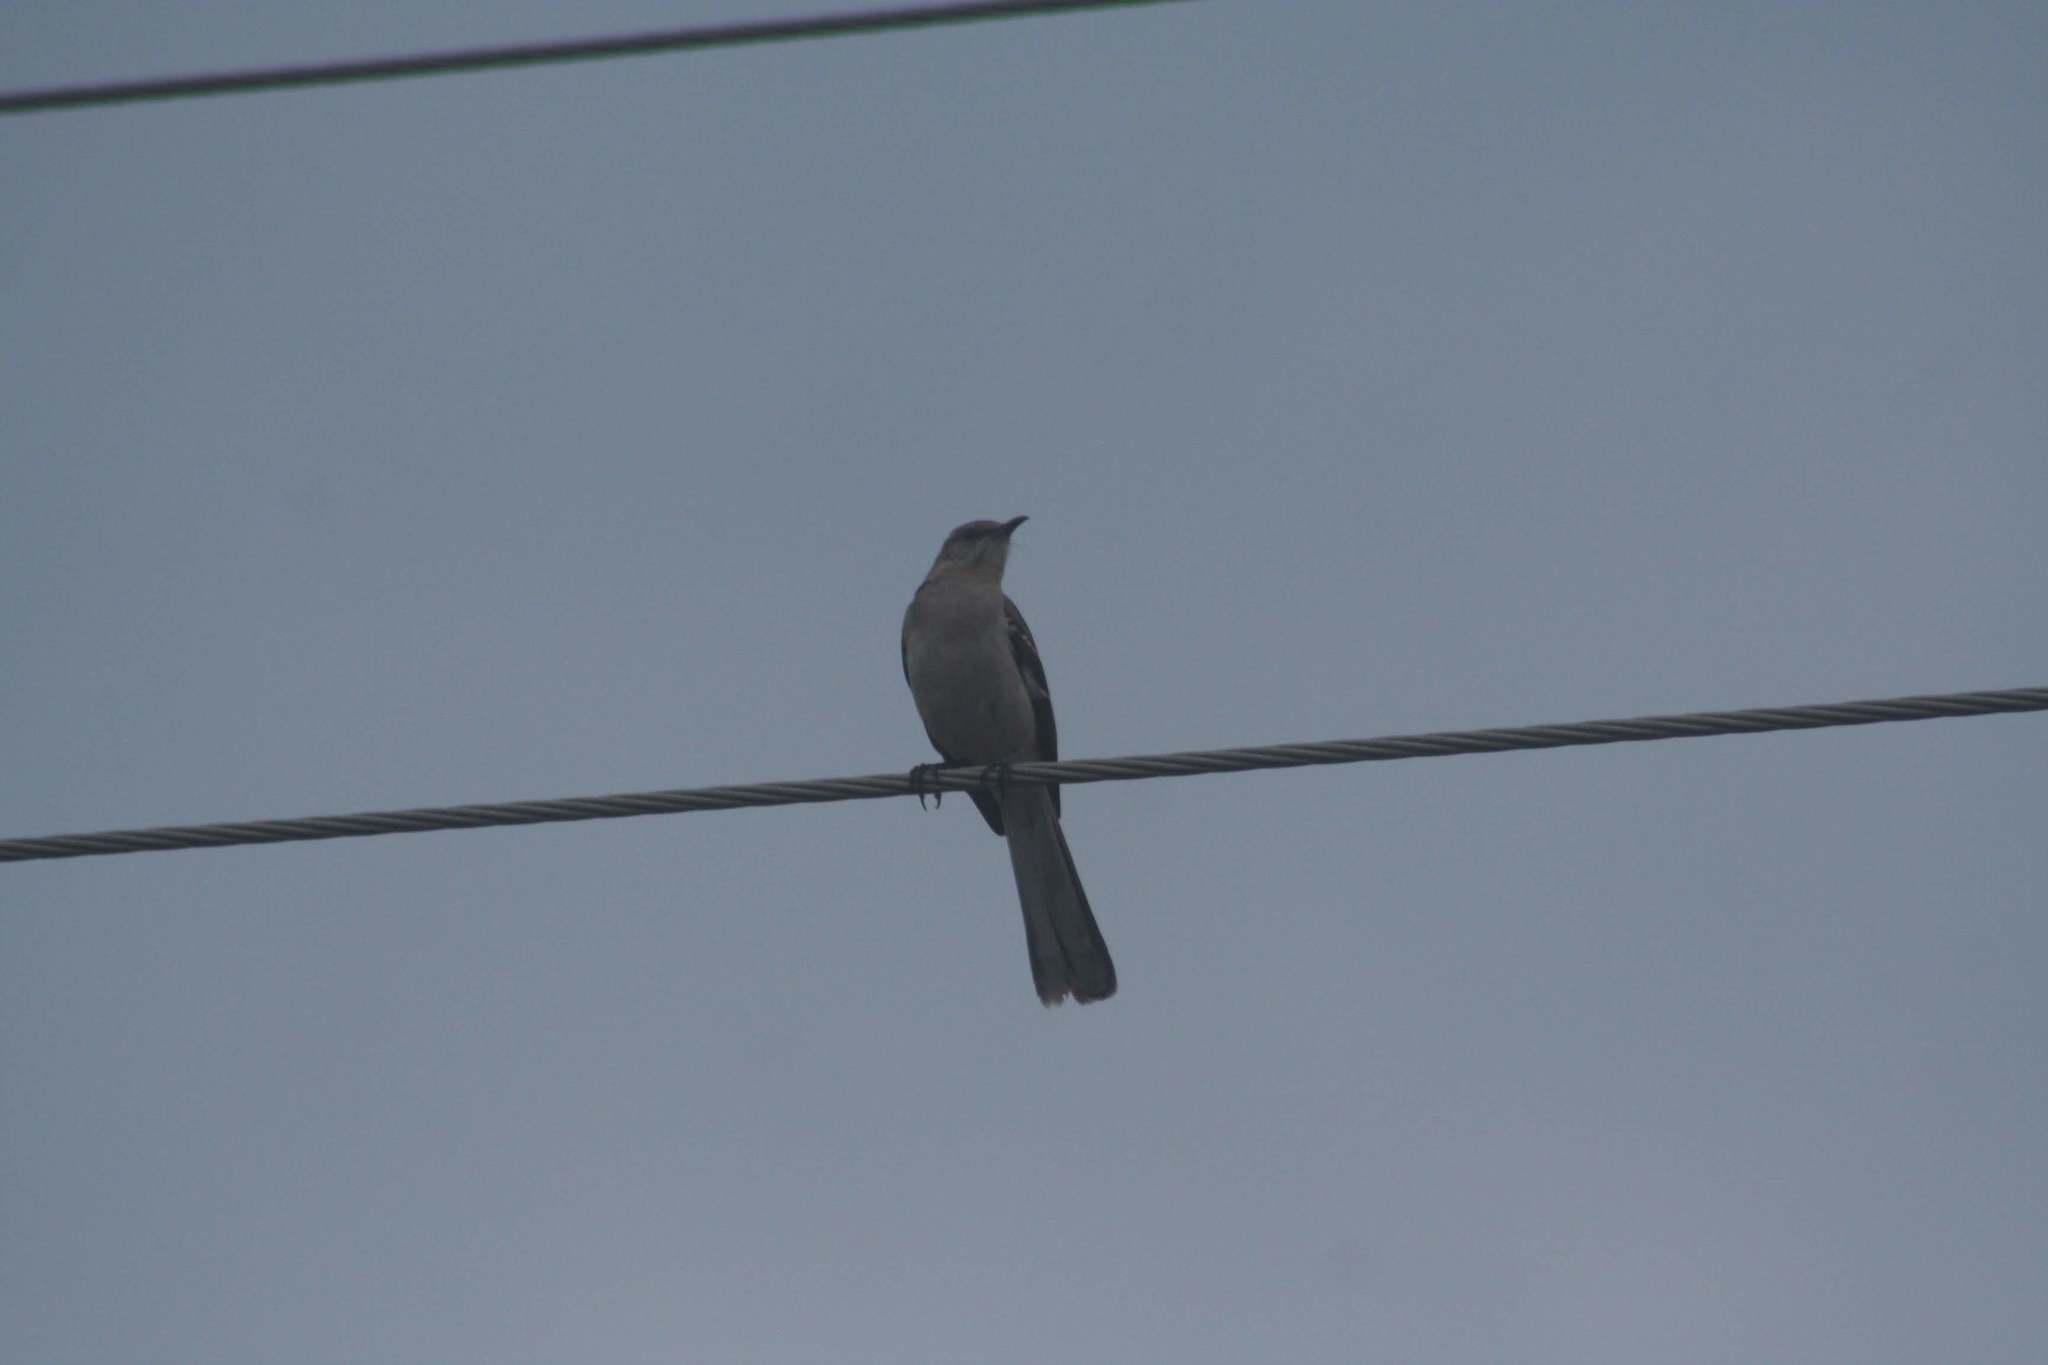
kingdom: Animalia
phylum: Chordata
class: Aves
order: Passeriformes
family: Mimidae
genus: Mimus
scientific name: Mimus polyglottos
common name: Northern mockingbird
